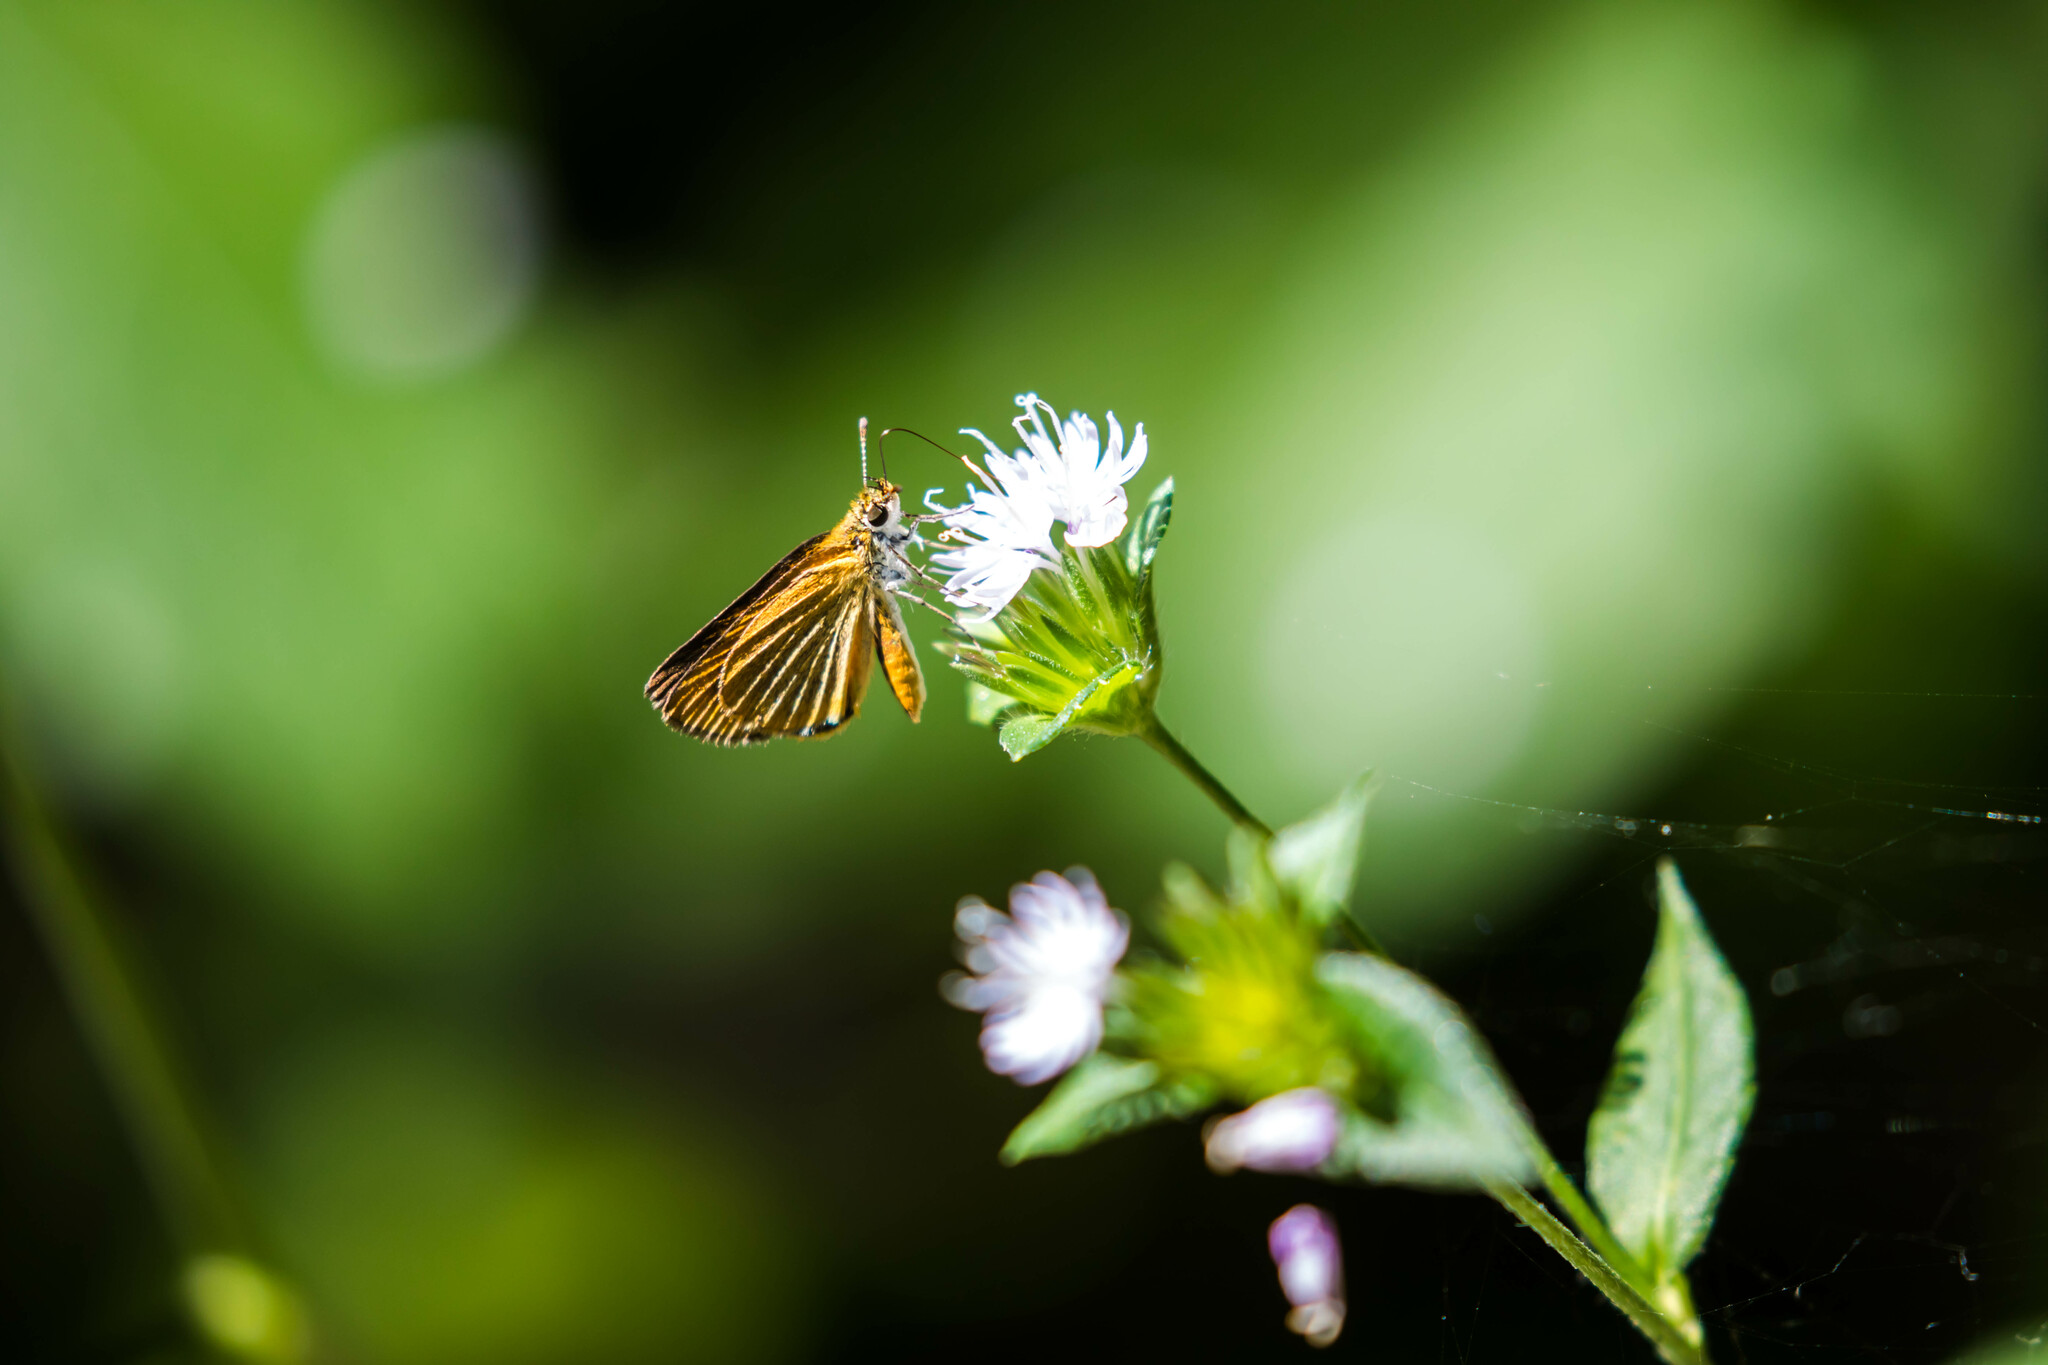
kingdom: Animalia
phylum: Arthropoda
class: Insecta
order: Lepidoptera
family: Hesperiidae
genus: Ancyloxypha
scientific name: Ancyloxypha numitor
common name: Least skipper
